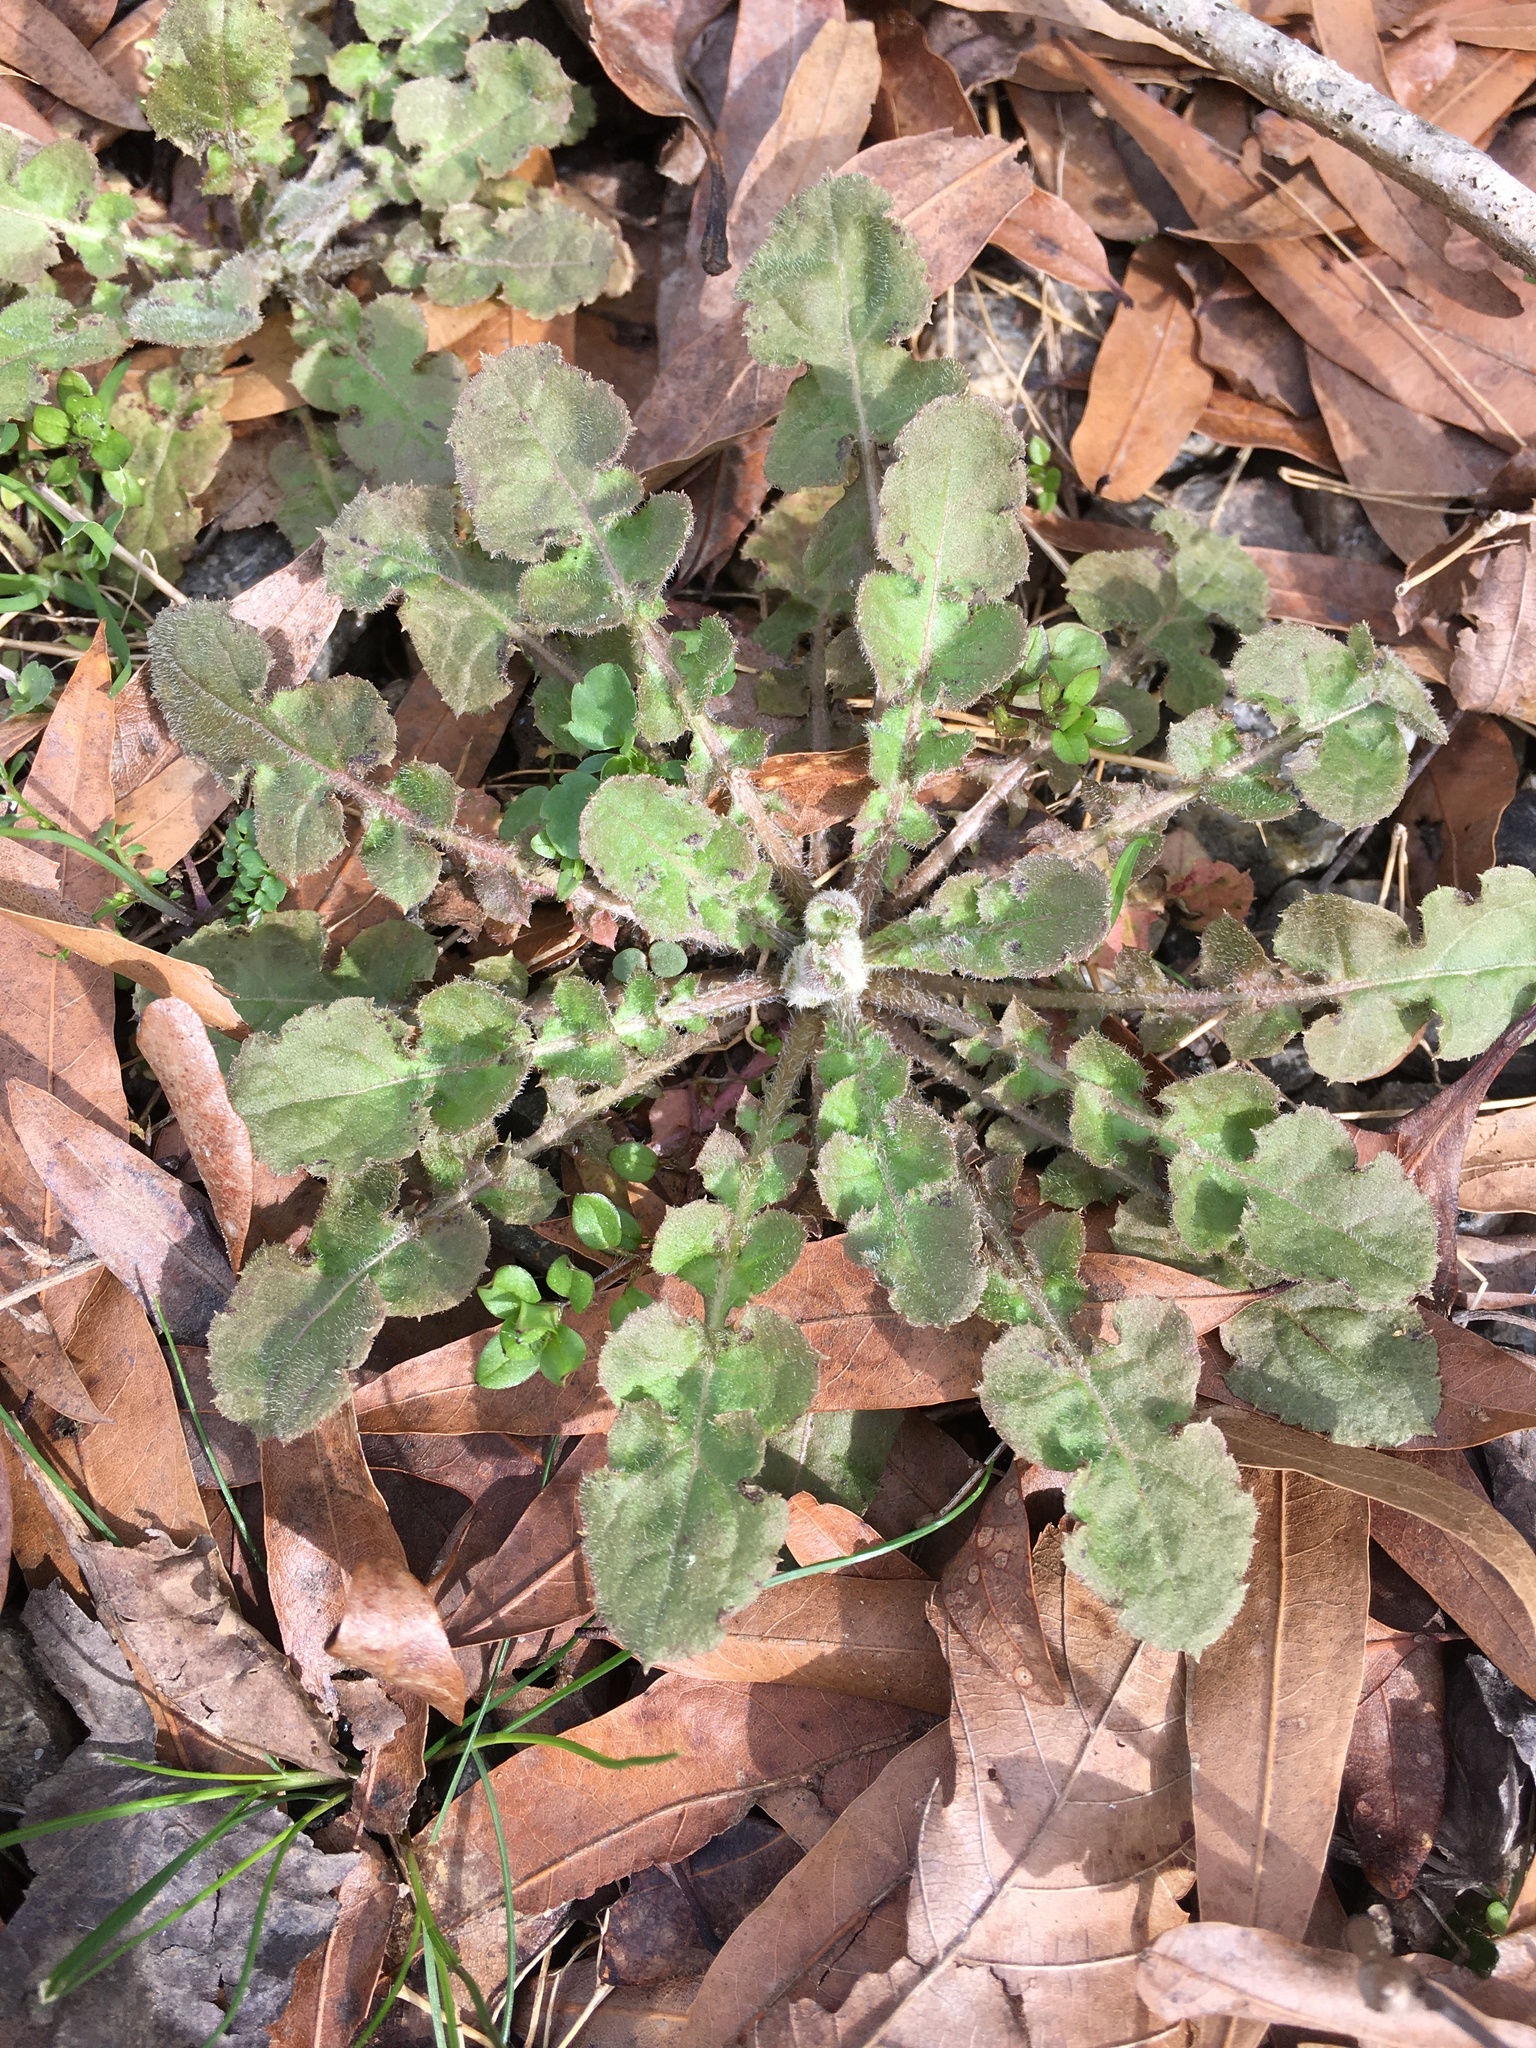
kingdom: Plantae
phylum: Tracheophyta
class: Magnoliopsida
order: Asterales
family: Asteraceae
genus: Youngia
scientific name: Youngia japonica
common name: Oriental false hawksbeard
